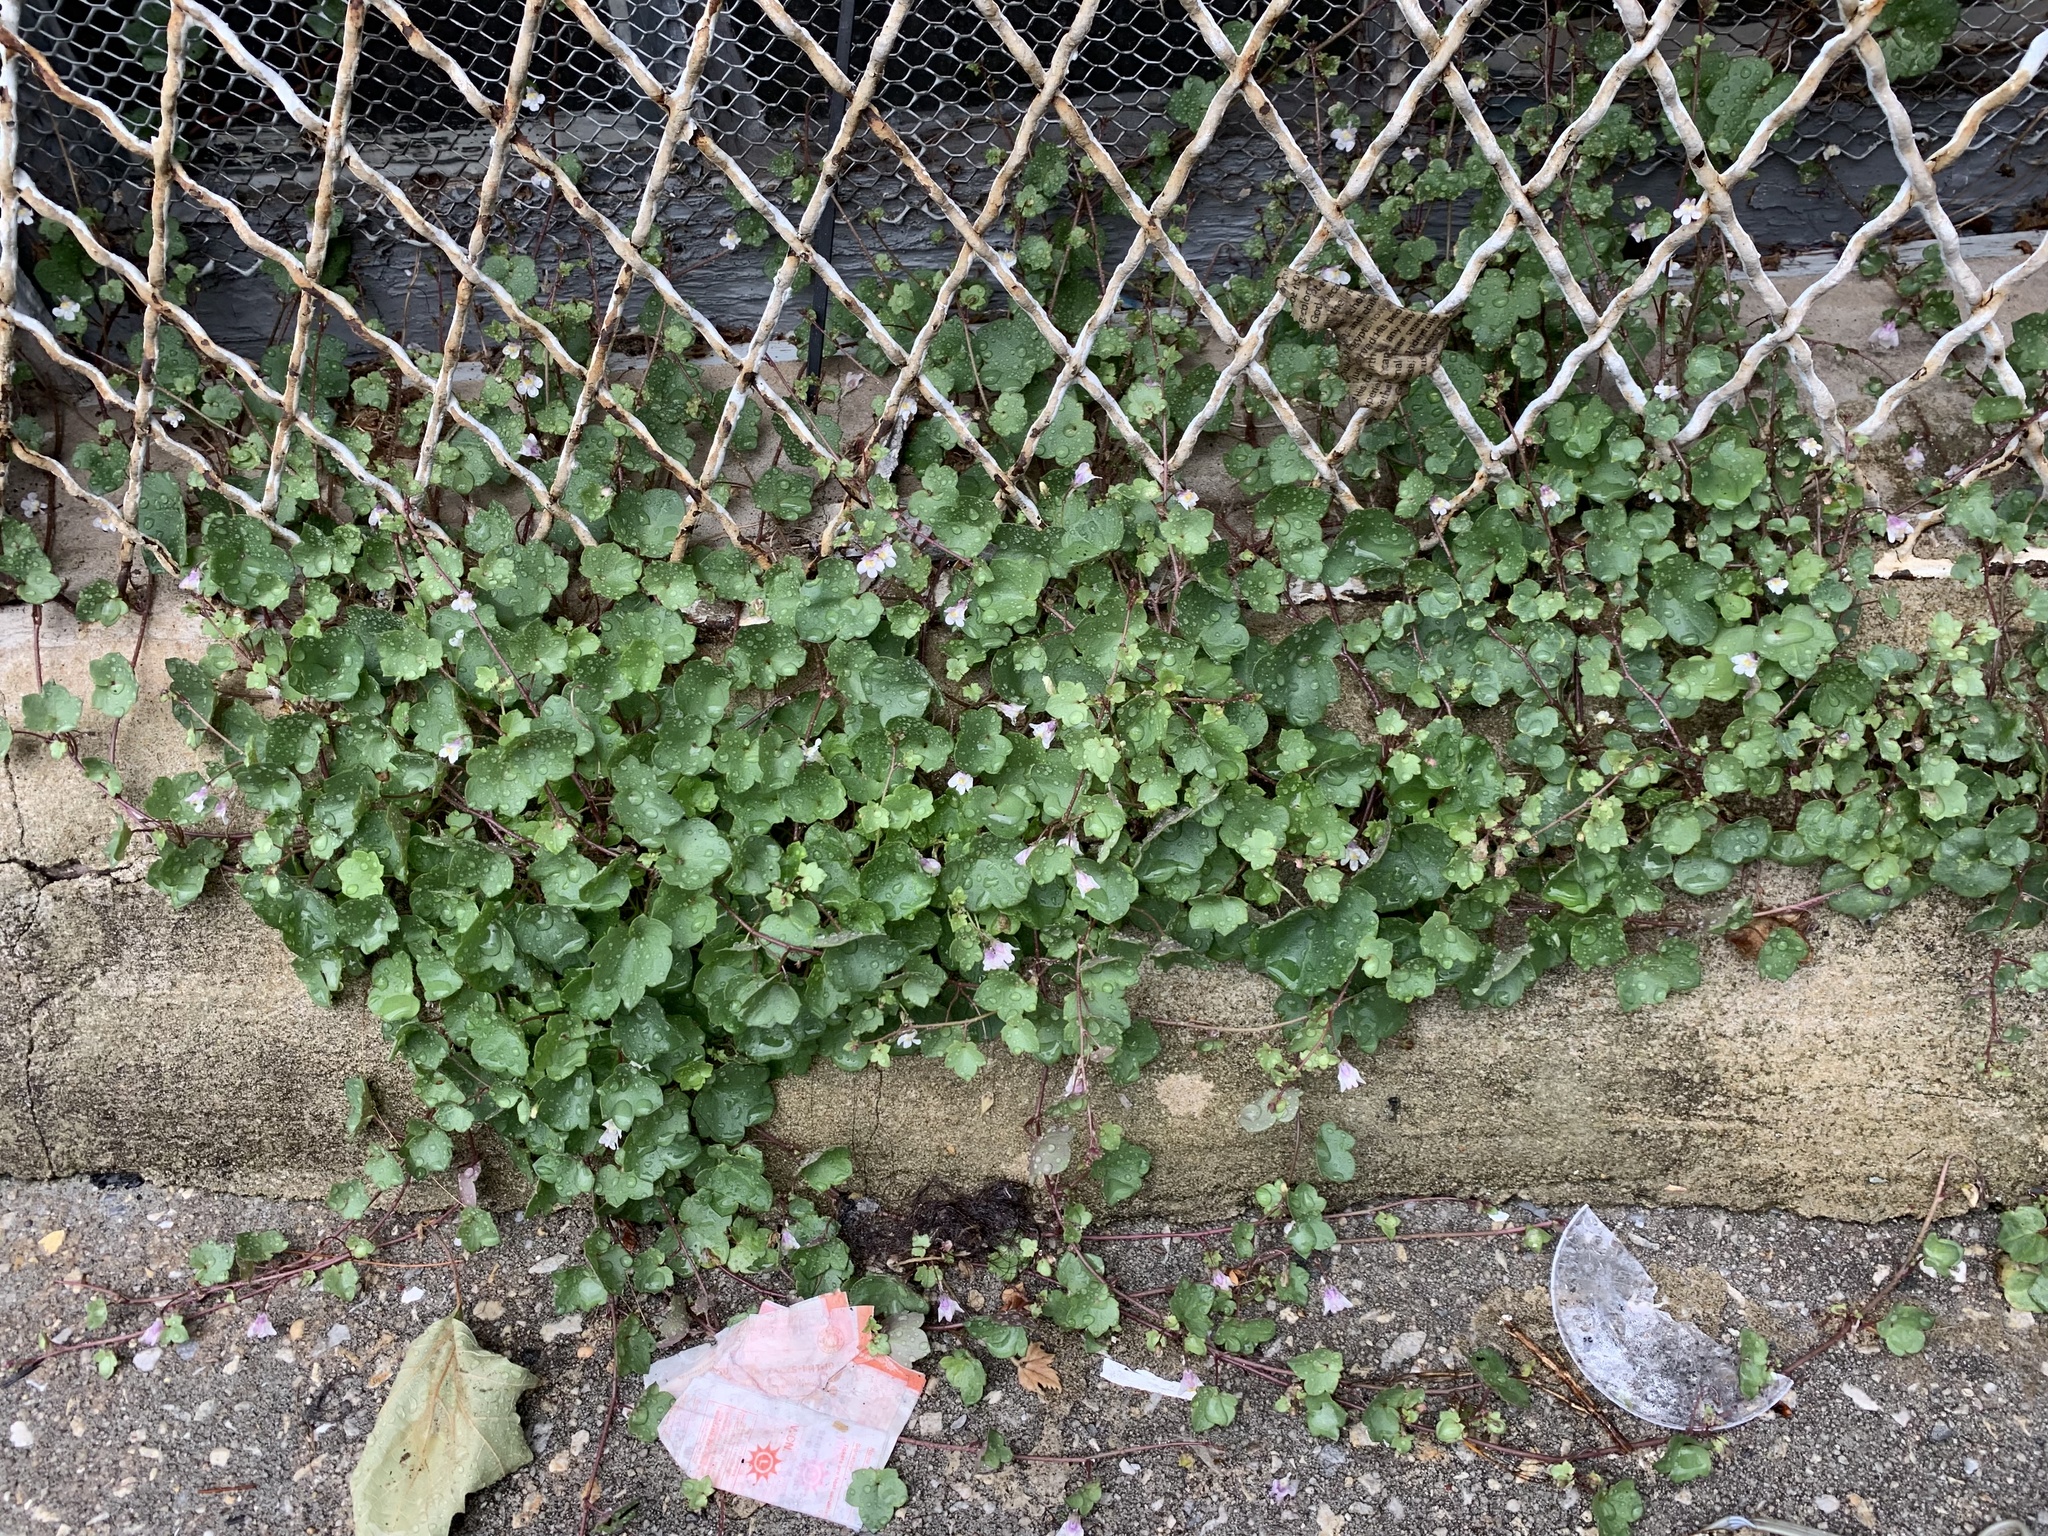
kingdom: Plantae
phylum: Tracheophyta
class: Magnoliopsida
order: Lamiales
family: Plantaginaceae
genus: Cymbalaria
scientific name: Cymbalaria muralis
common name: Ivy-leaved toadflax
